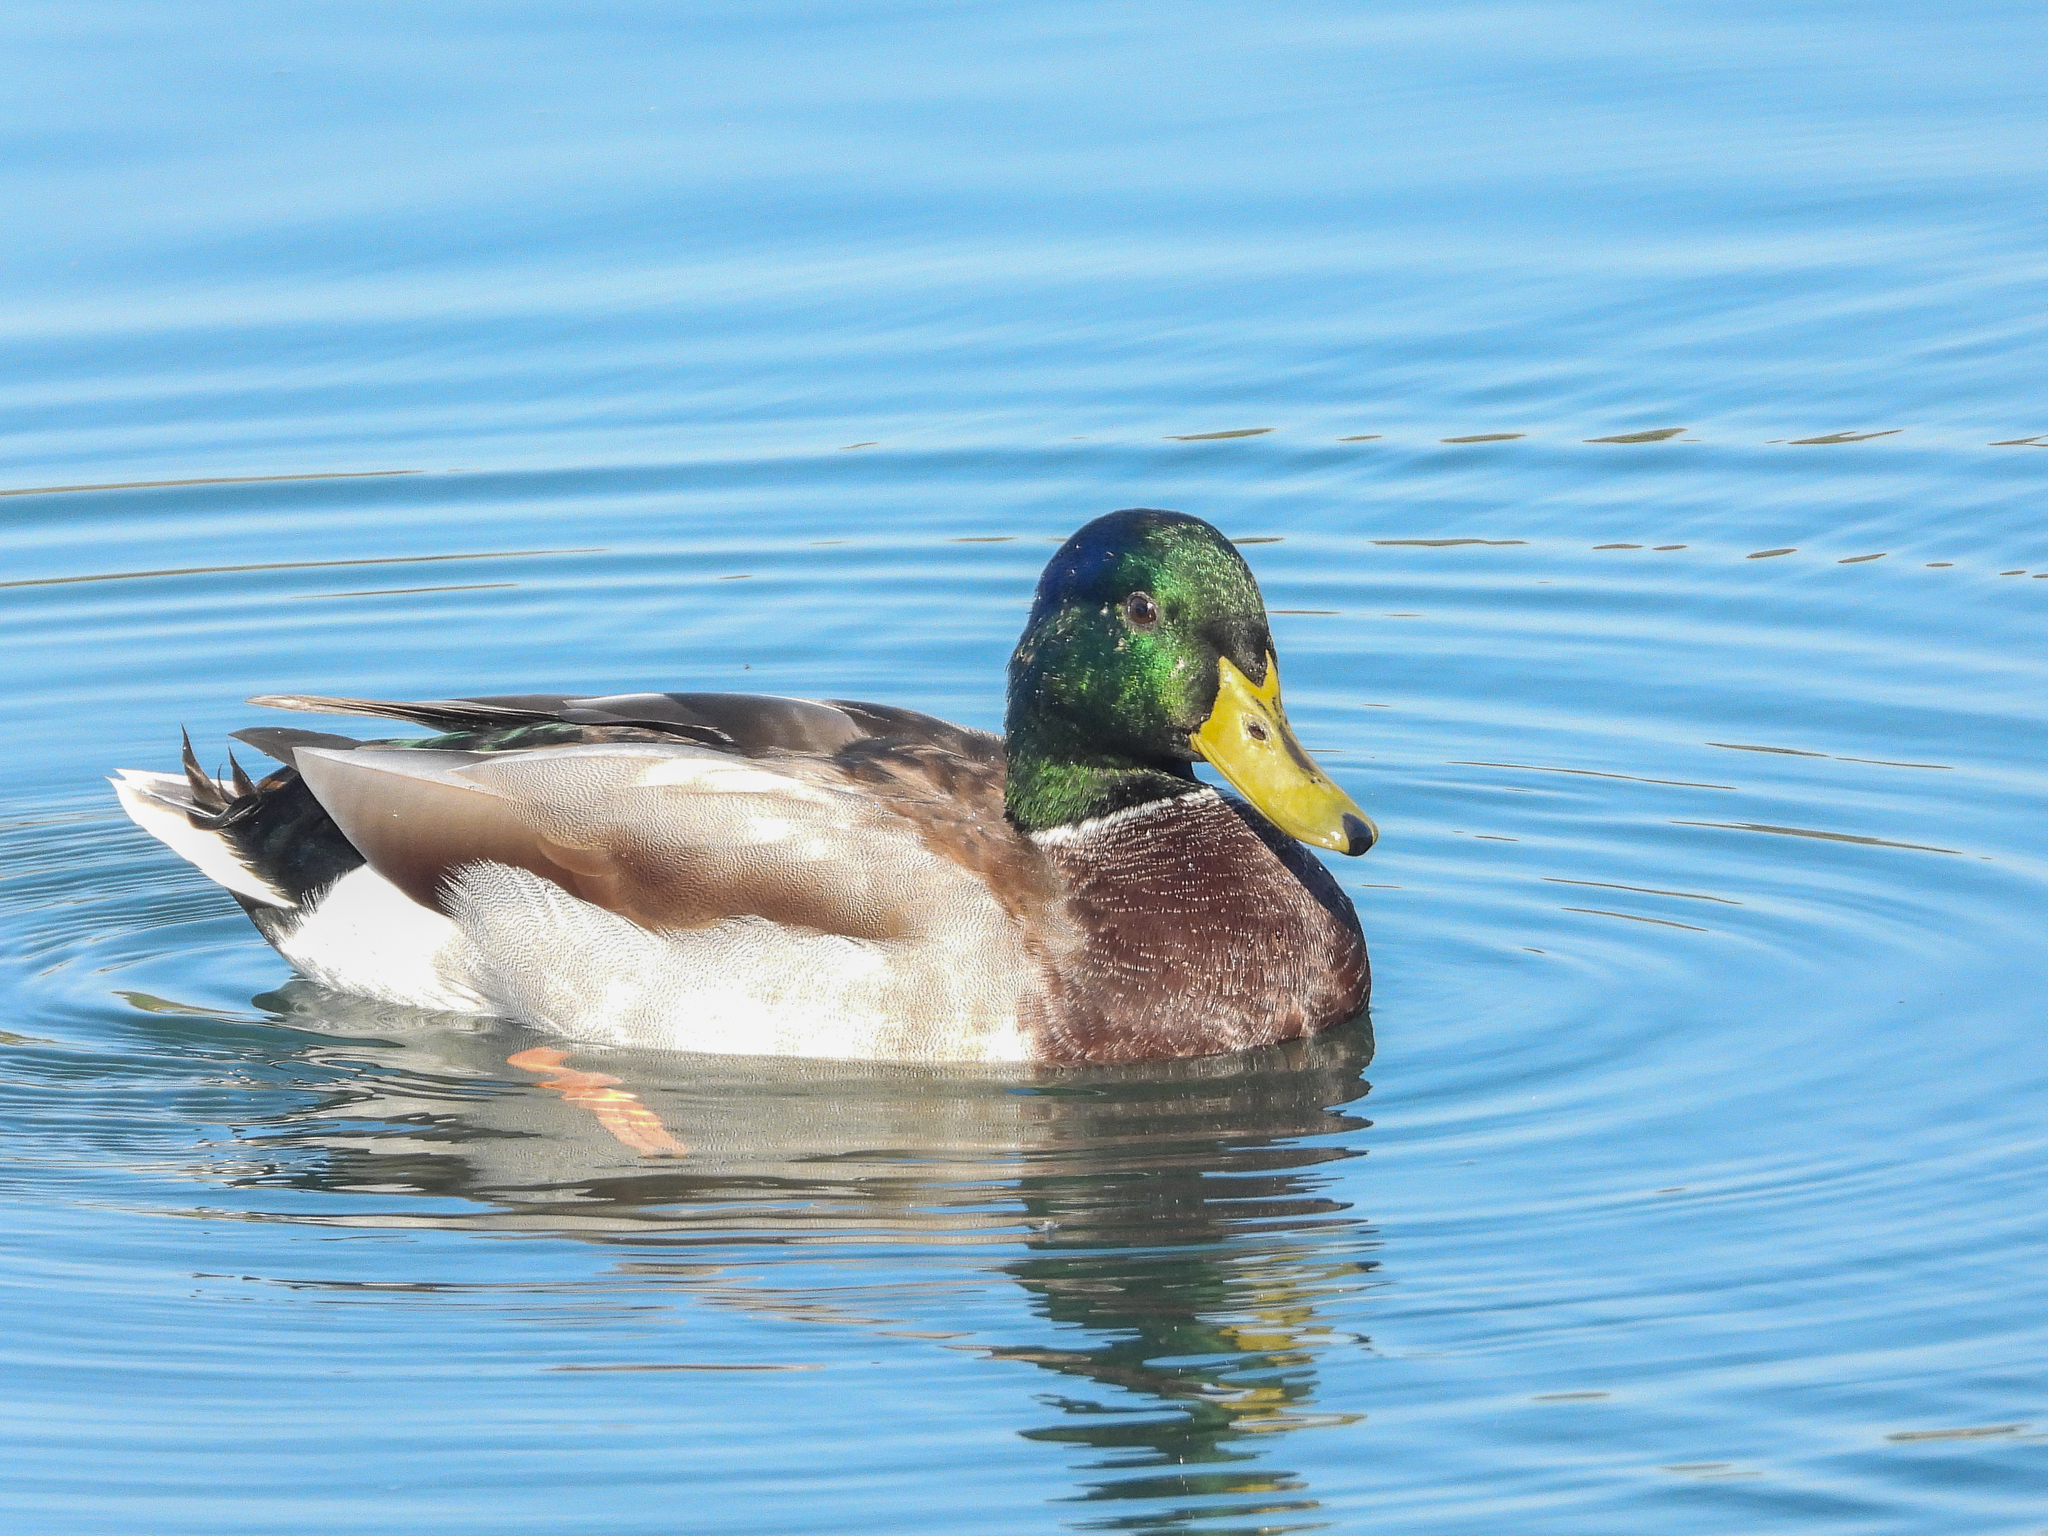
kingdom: Animalia
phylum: Chordata
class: Aves
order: Anseriformes
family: Anatidae
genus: Anas
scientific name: Anas platyrhynchos
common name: Mallard
